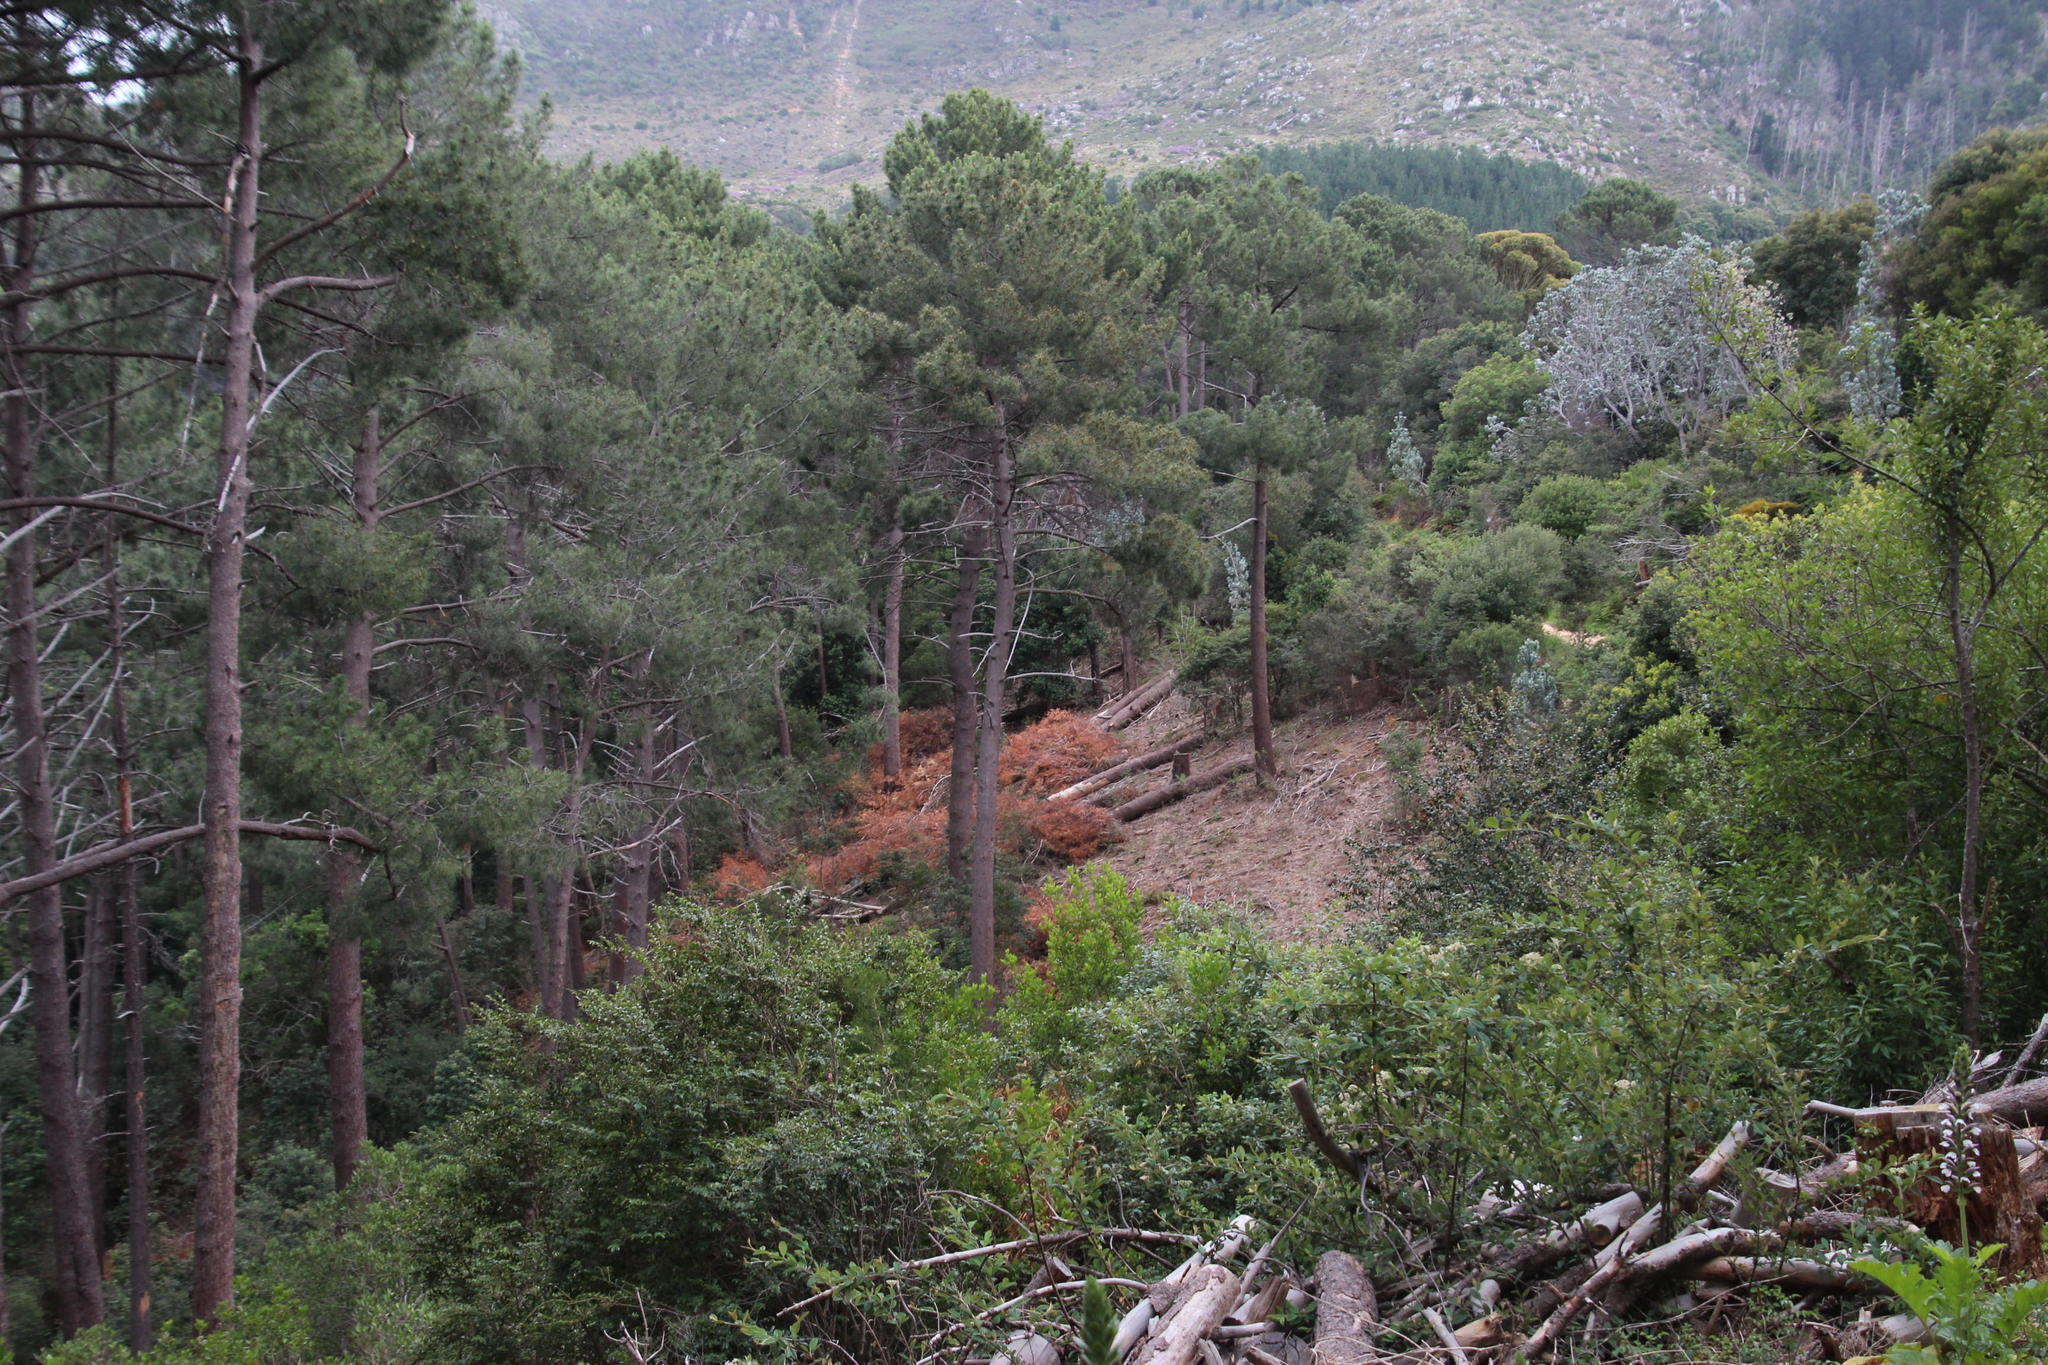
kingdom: Plantae
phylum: Tracheophyta
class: Magnoliopsida
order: Fabales
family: Fabaceae
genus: Acacia
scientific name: Acacia longifolia
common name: Sydney golden wattle
